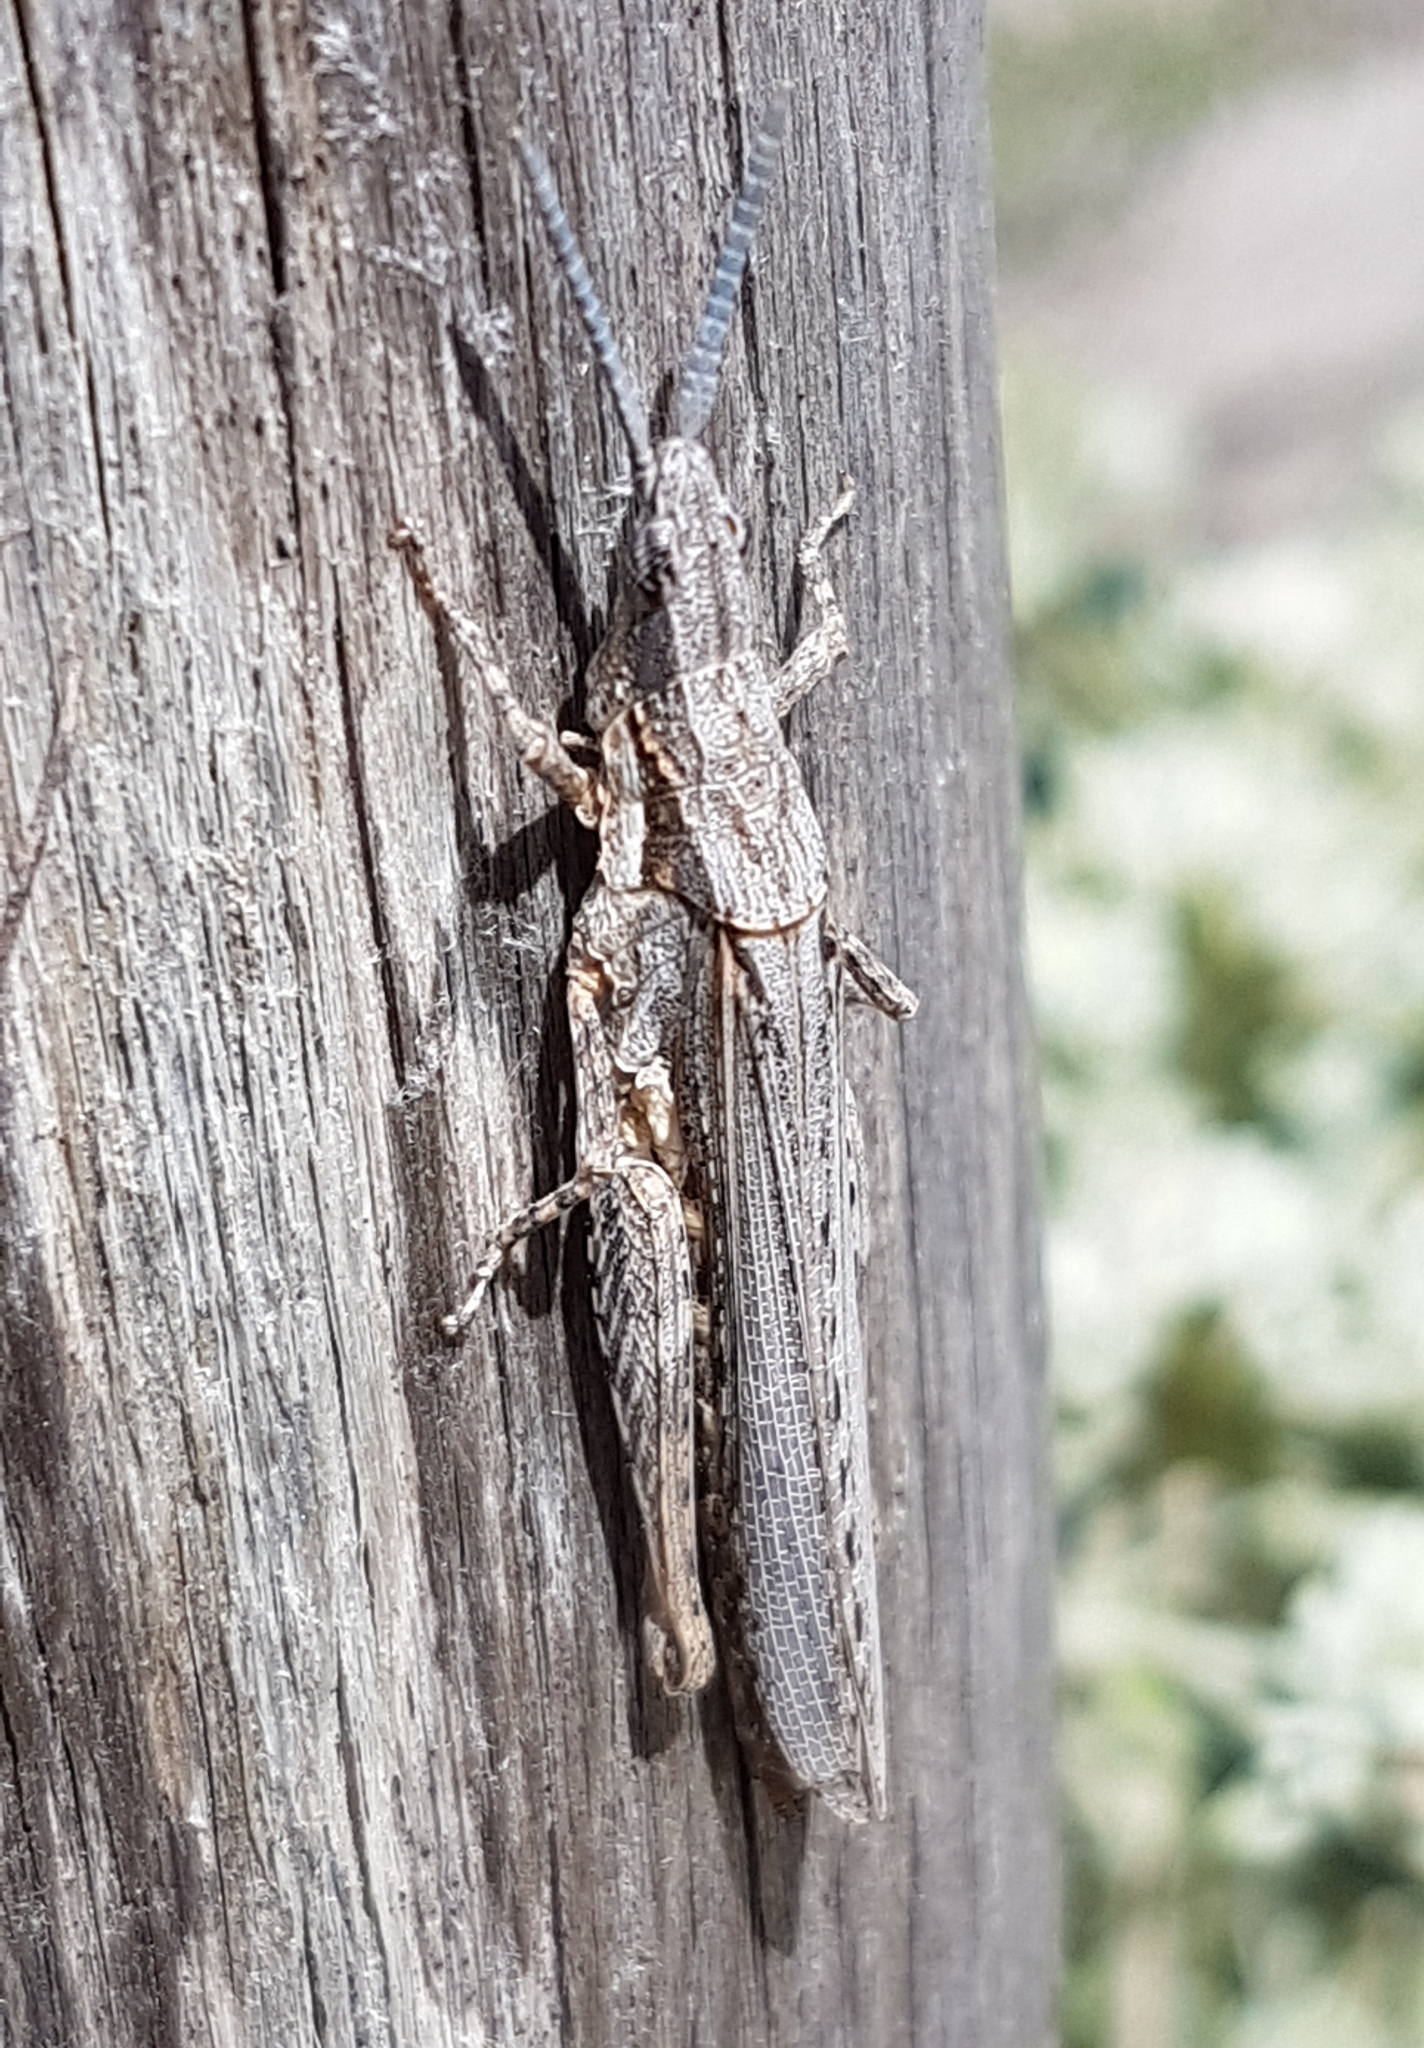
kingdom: Animalia
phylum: Arthropoda
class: Insecta
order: Orthoptera
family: Pyrgomorphidae
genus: Pyrgomorpha
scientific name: Pyrgomorpha conica
